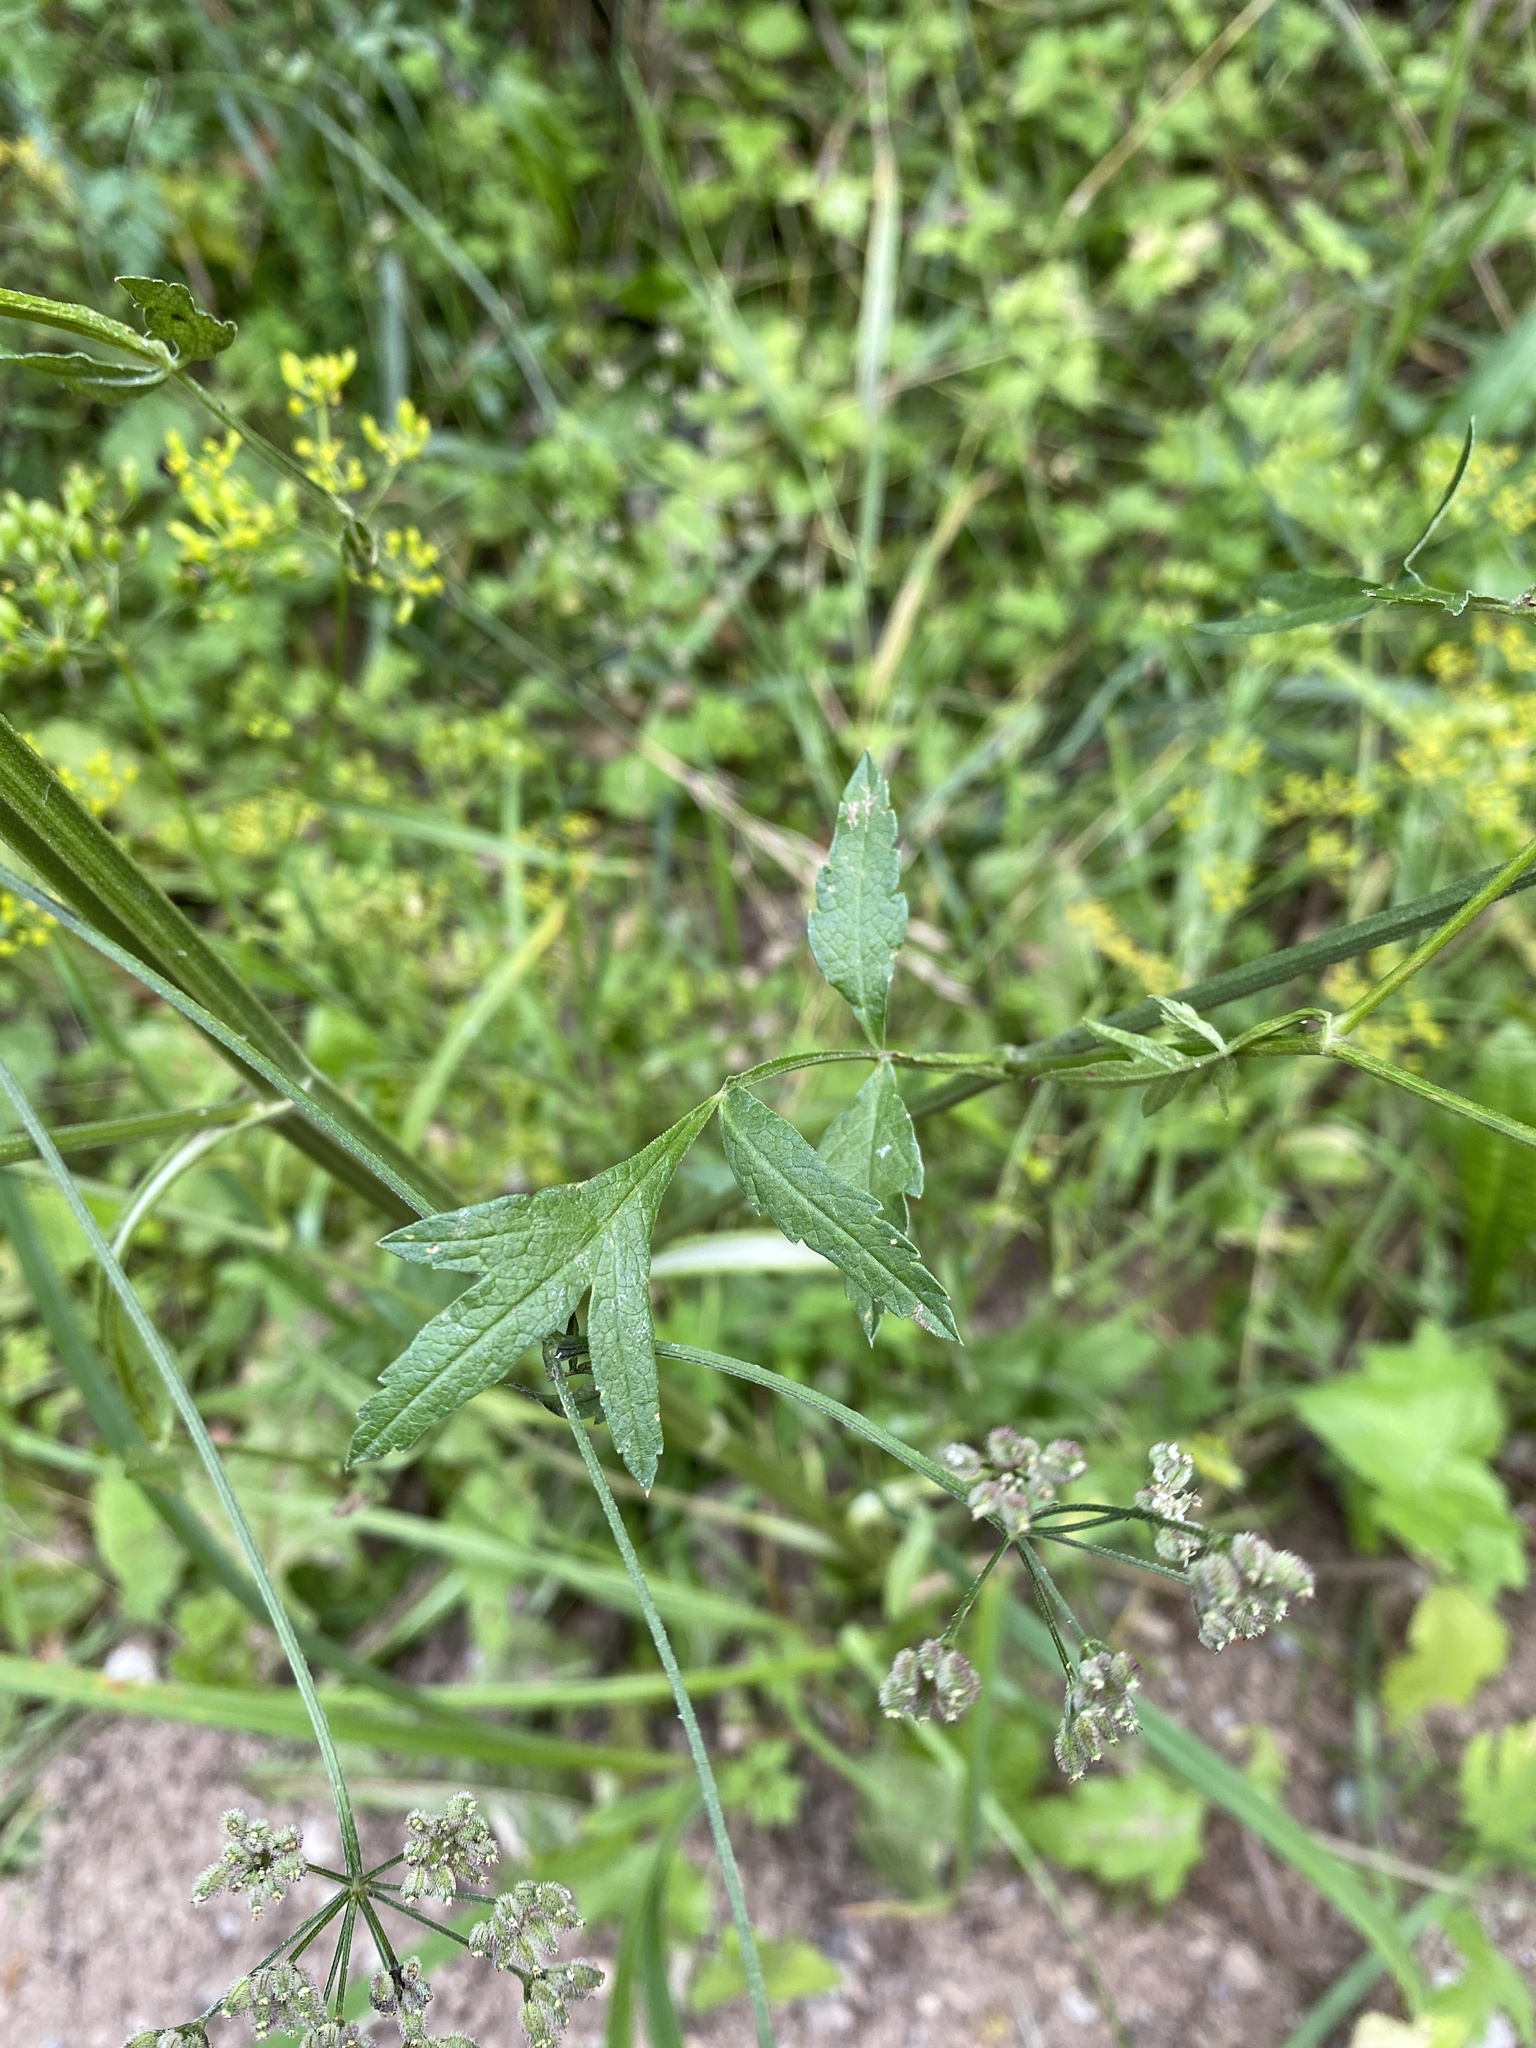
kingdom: Plantae
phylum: Tracheophyta
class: Magnoliopsida
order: Apiales
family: Apiaceae
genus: Pastinaca
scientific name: Pastinaca sativa
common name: Wild parsnip
